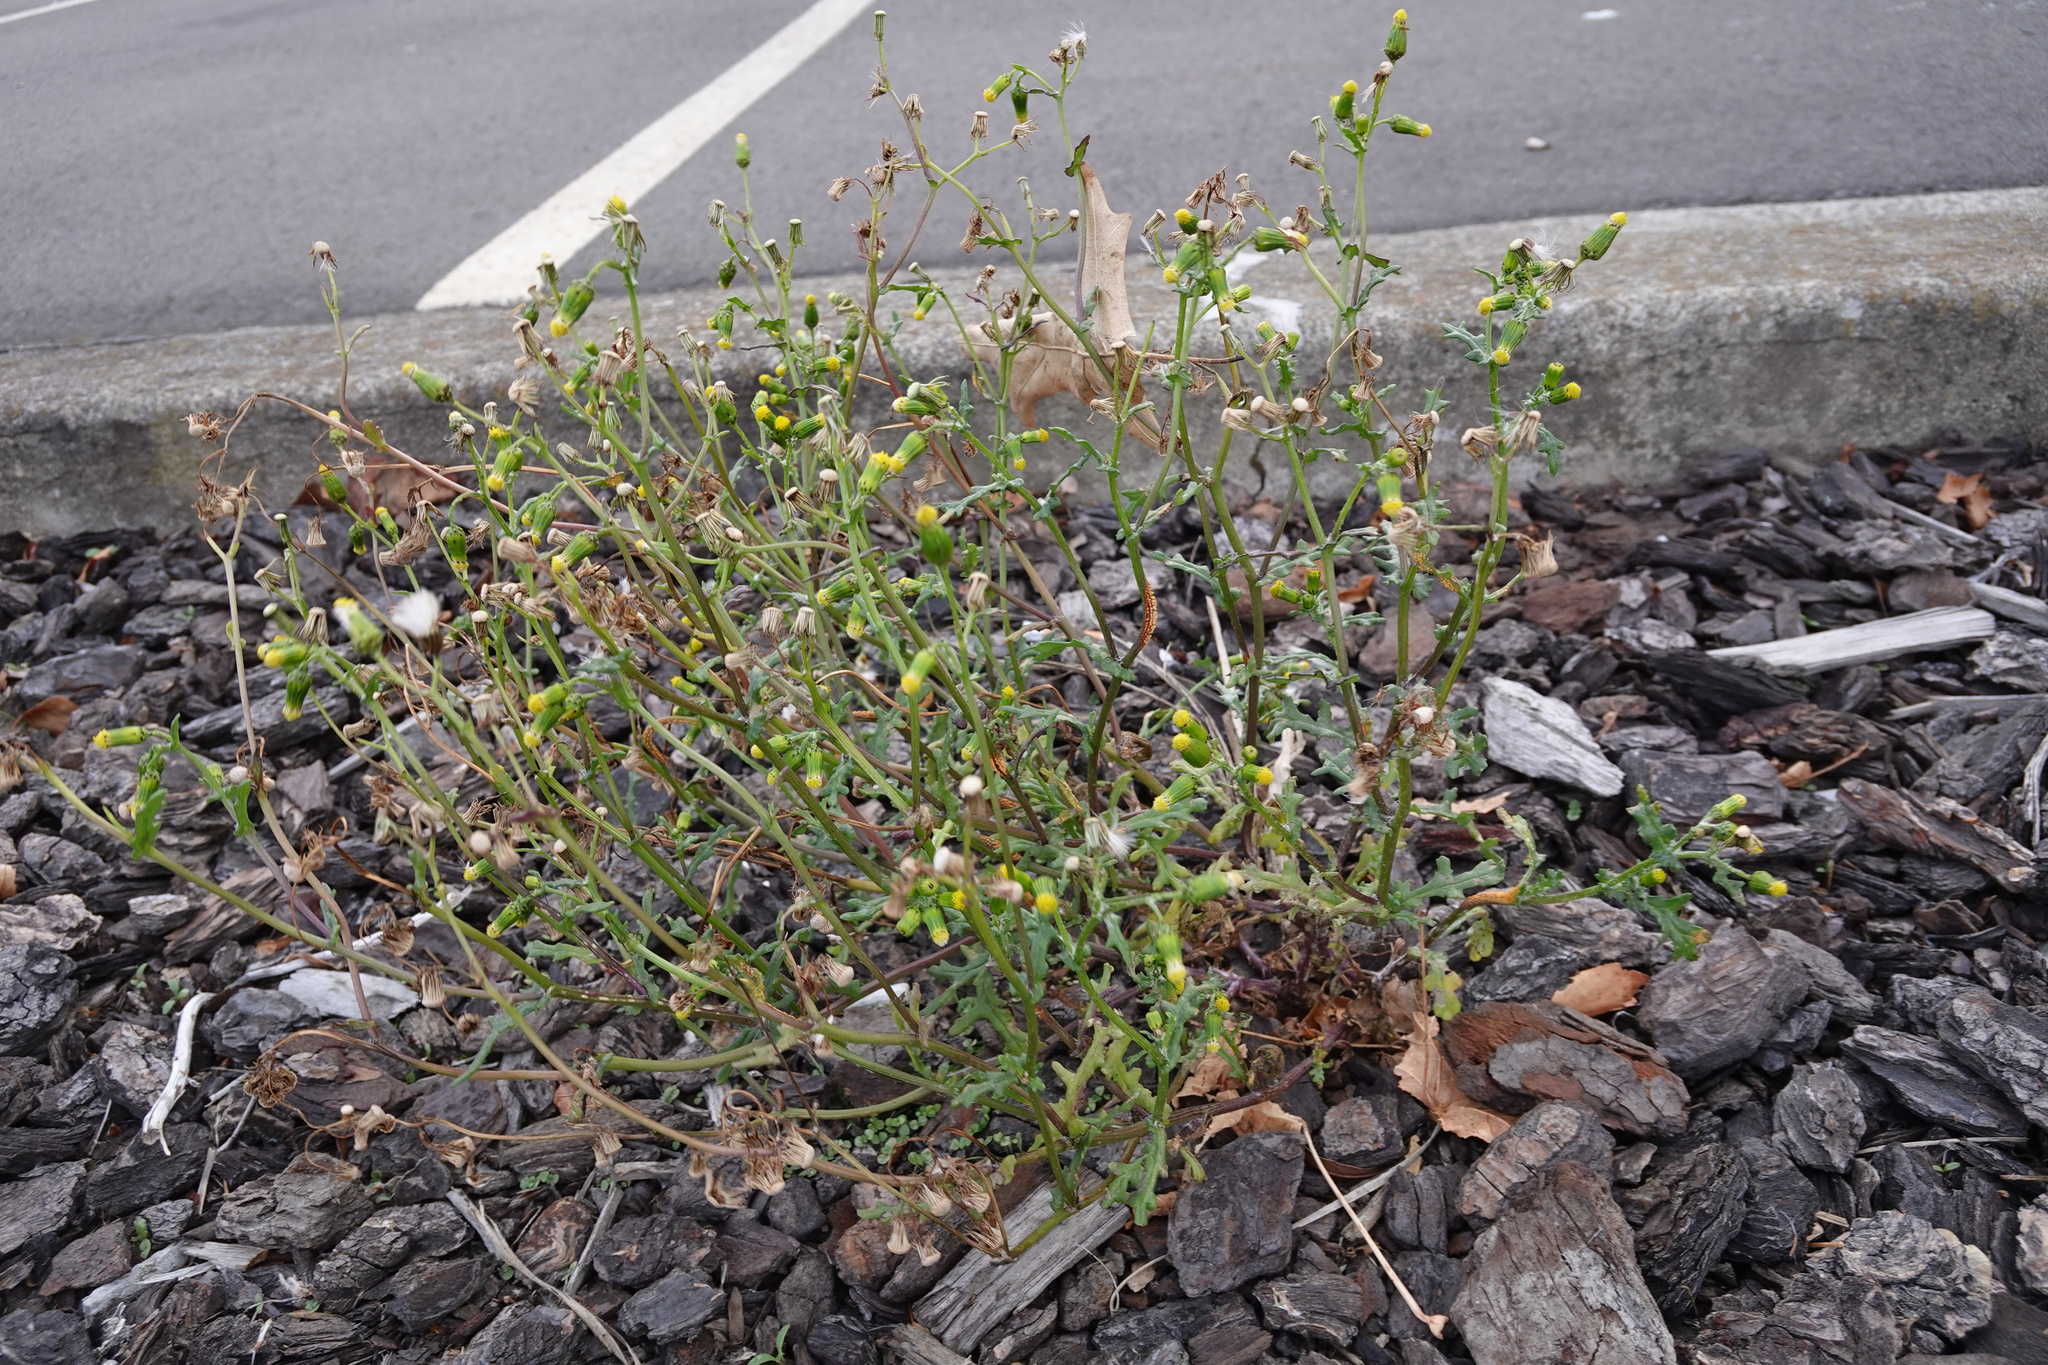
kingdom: Plantae
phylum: Tracheophyta
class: Magnoliopsida
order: Asterales
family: Asteraceae
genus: Senecio
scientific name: Senecio vulgaris
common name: Old-man-in-the-spring
